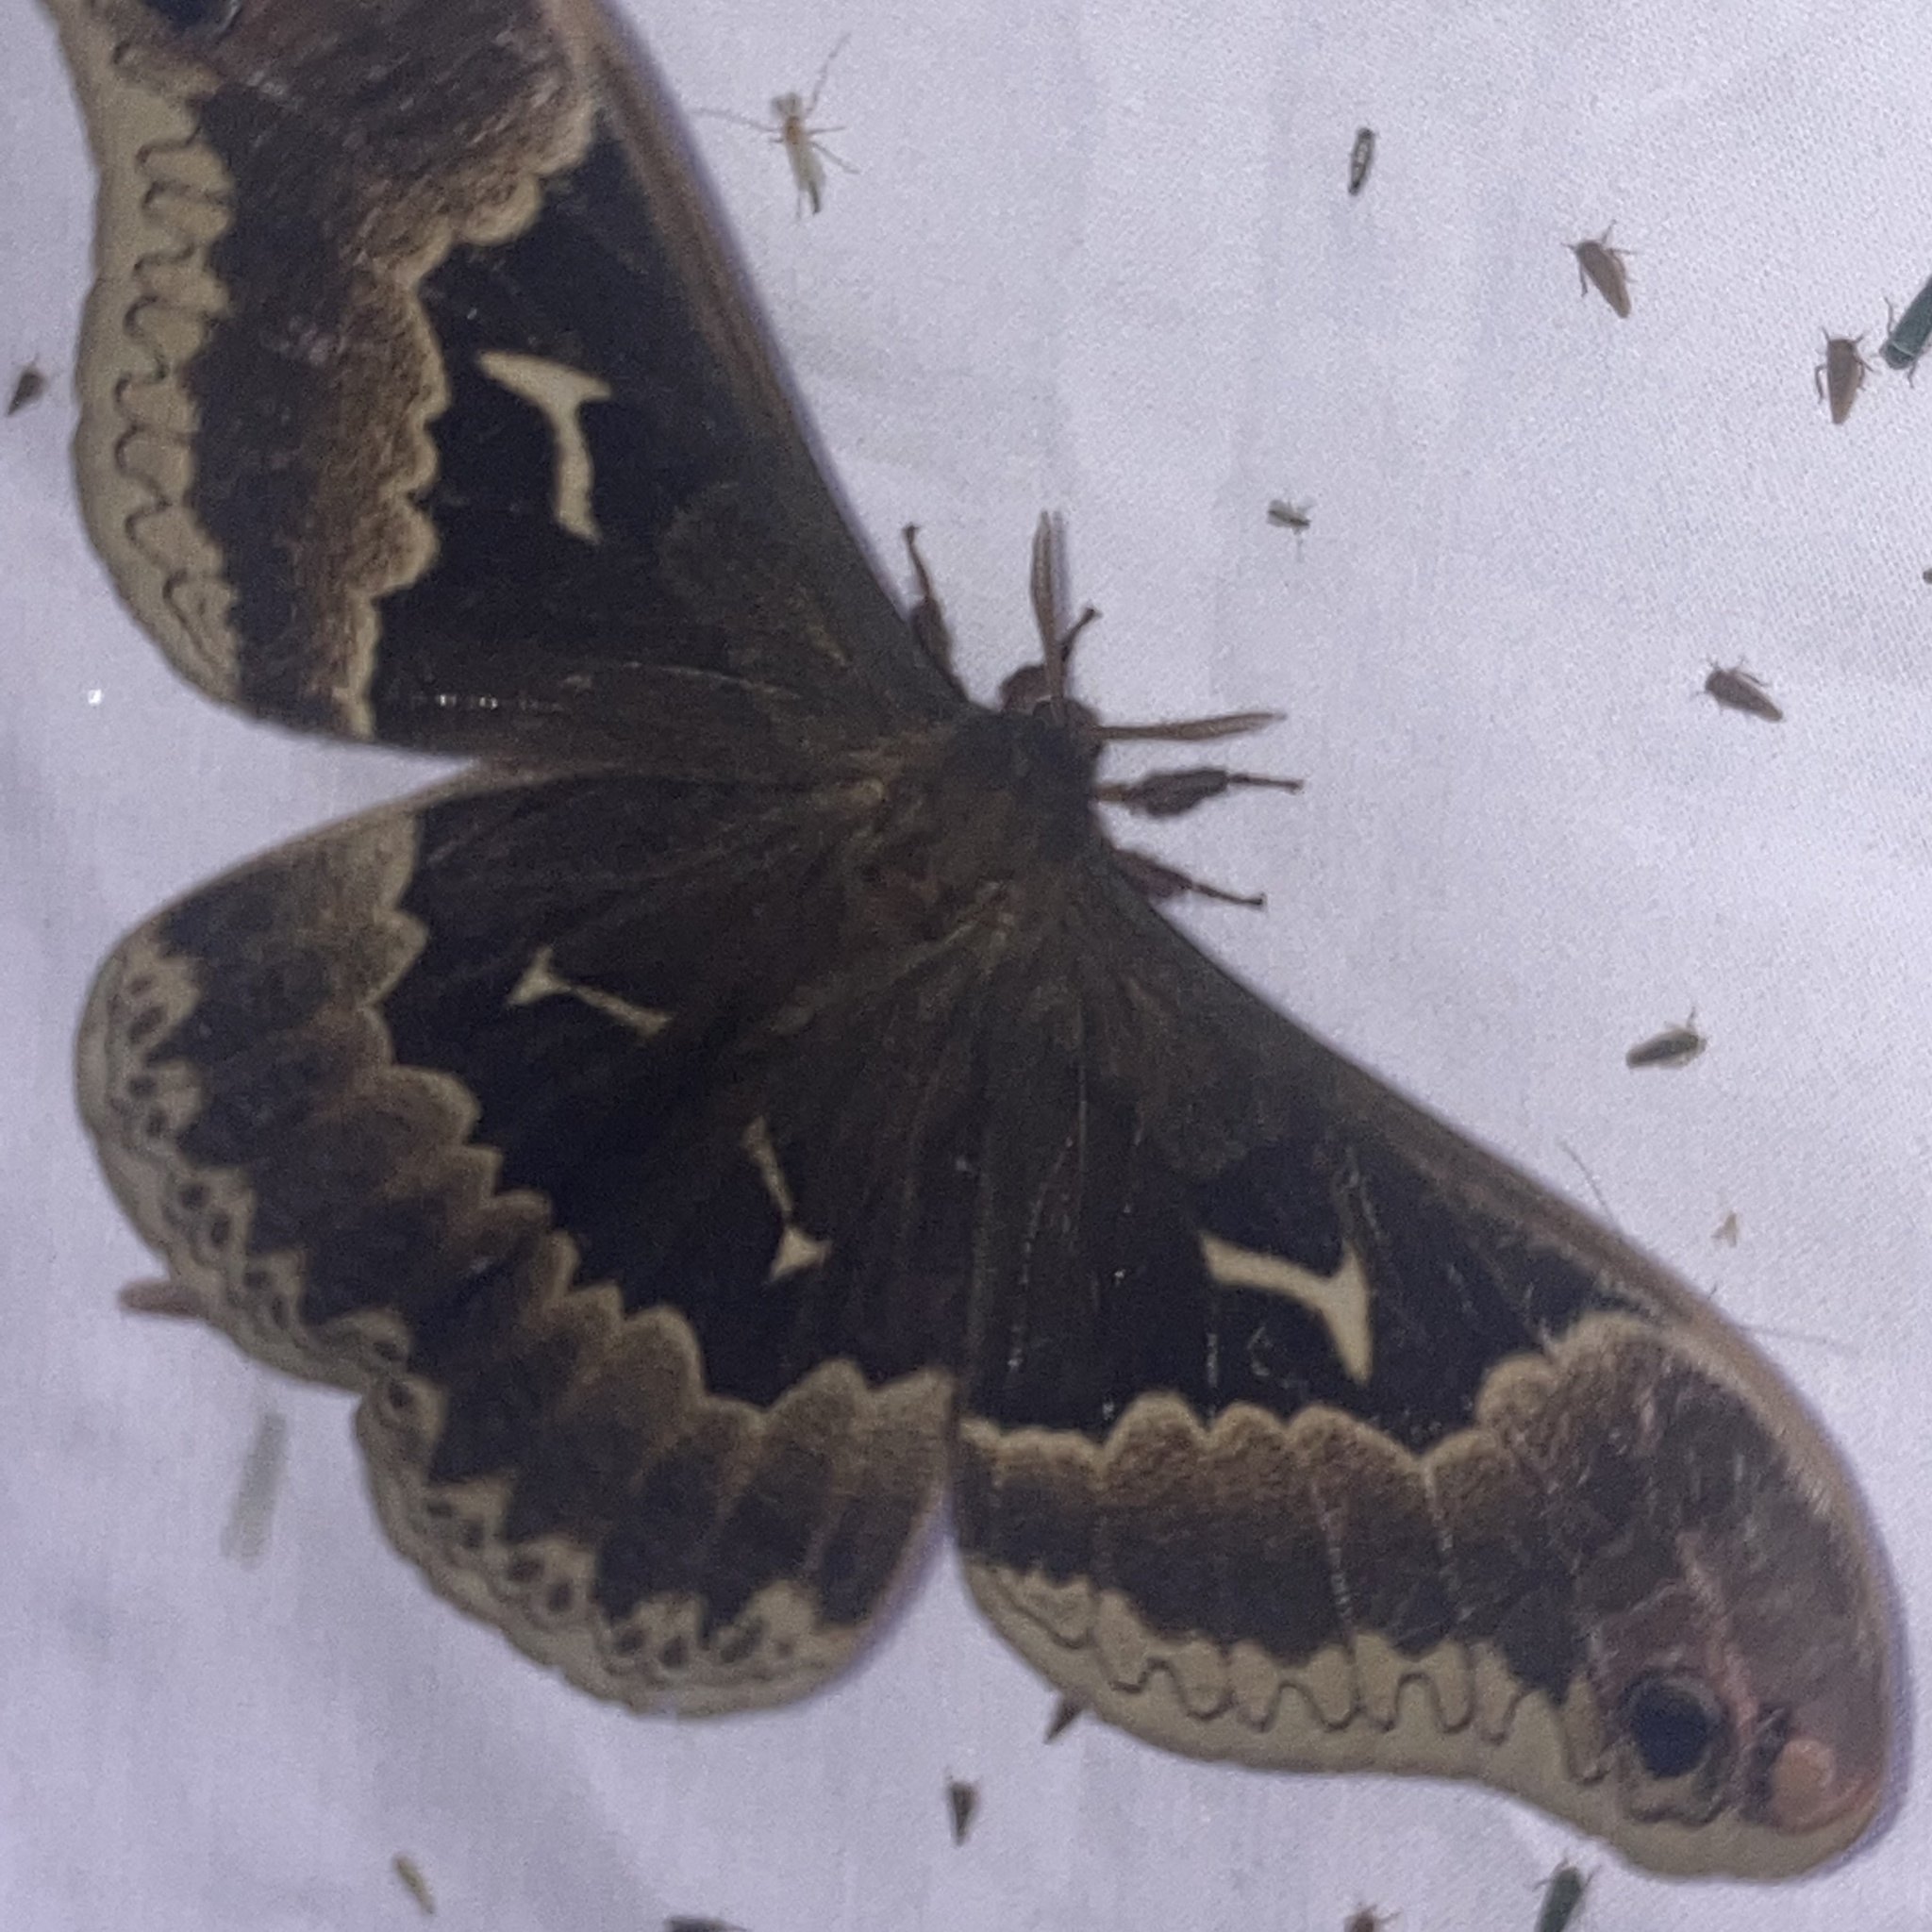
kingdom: Animalia
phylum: Arthropoda
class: Insecta
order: Lepidoptera
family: Saturniidae
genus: Callosamia
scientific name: Callosamia angulifera
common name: Tulip tree silkmoth
